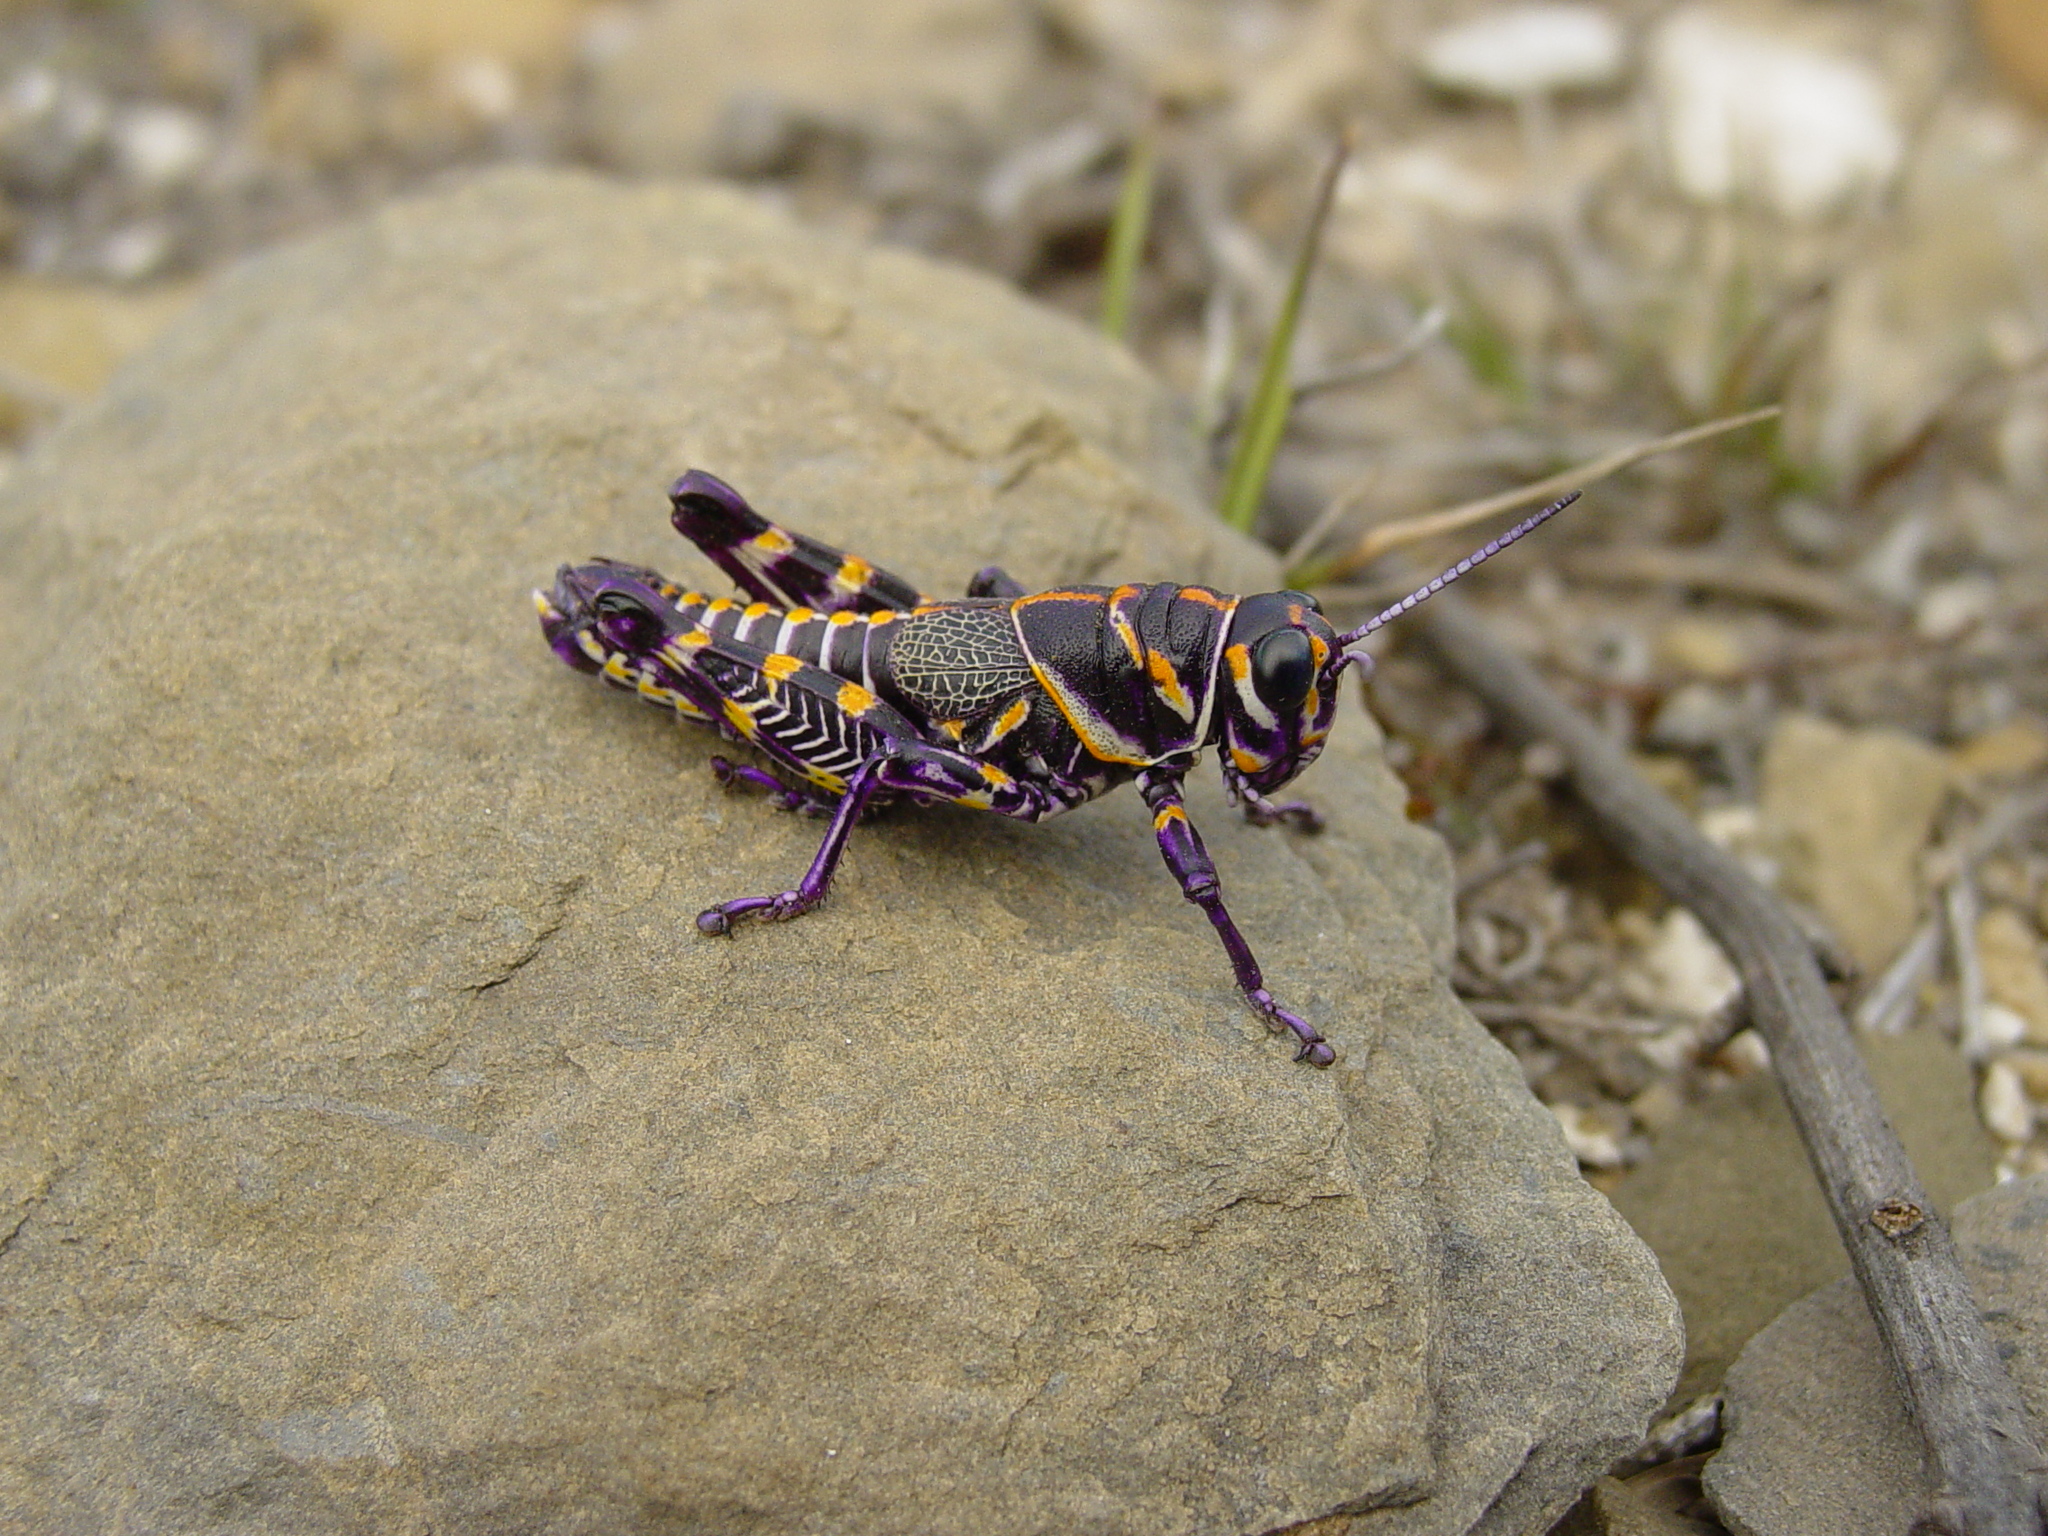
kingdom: Animalia
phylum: Arthropoda
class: Insecta
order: Orthoptera
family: Acrididae
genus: Dactylotum
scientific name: Dactylotum bicolor
